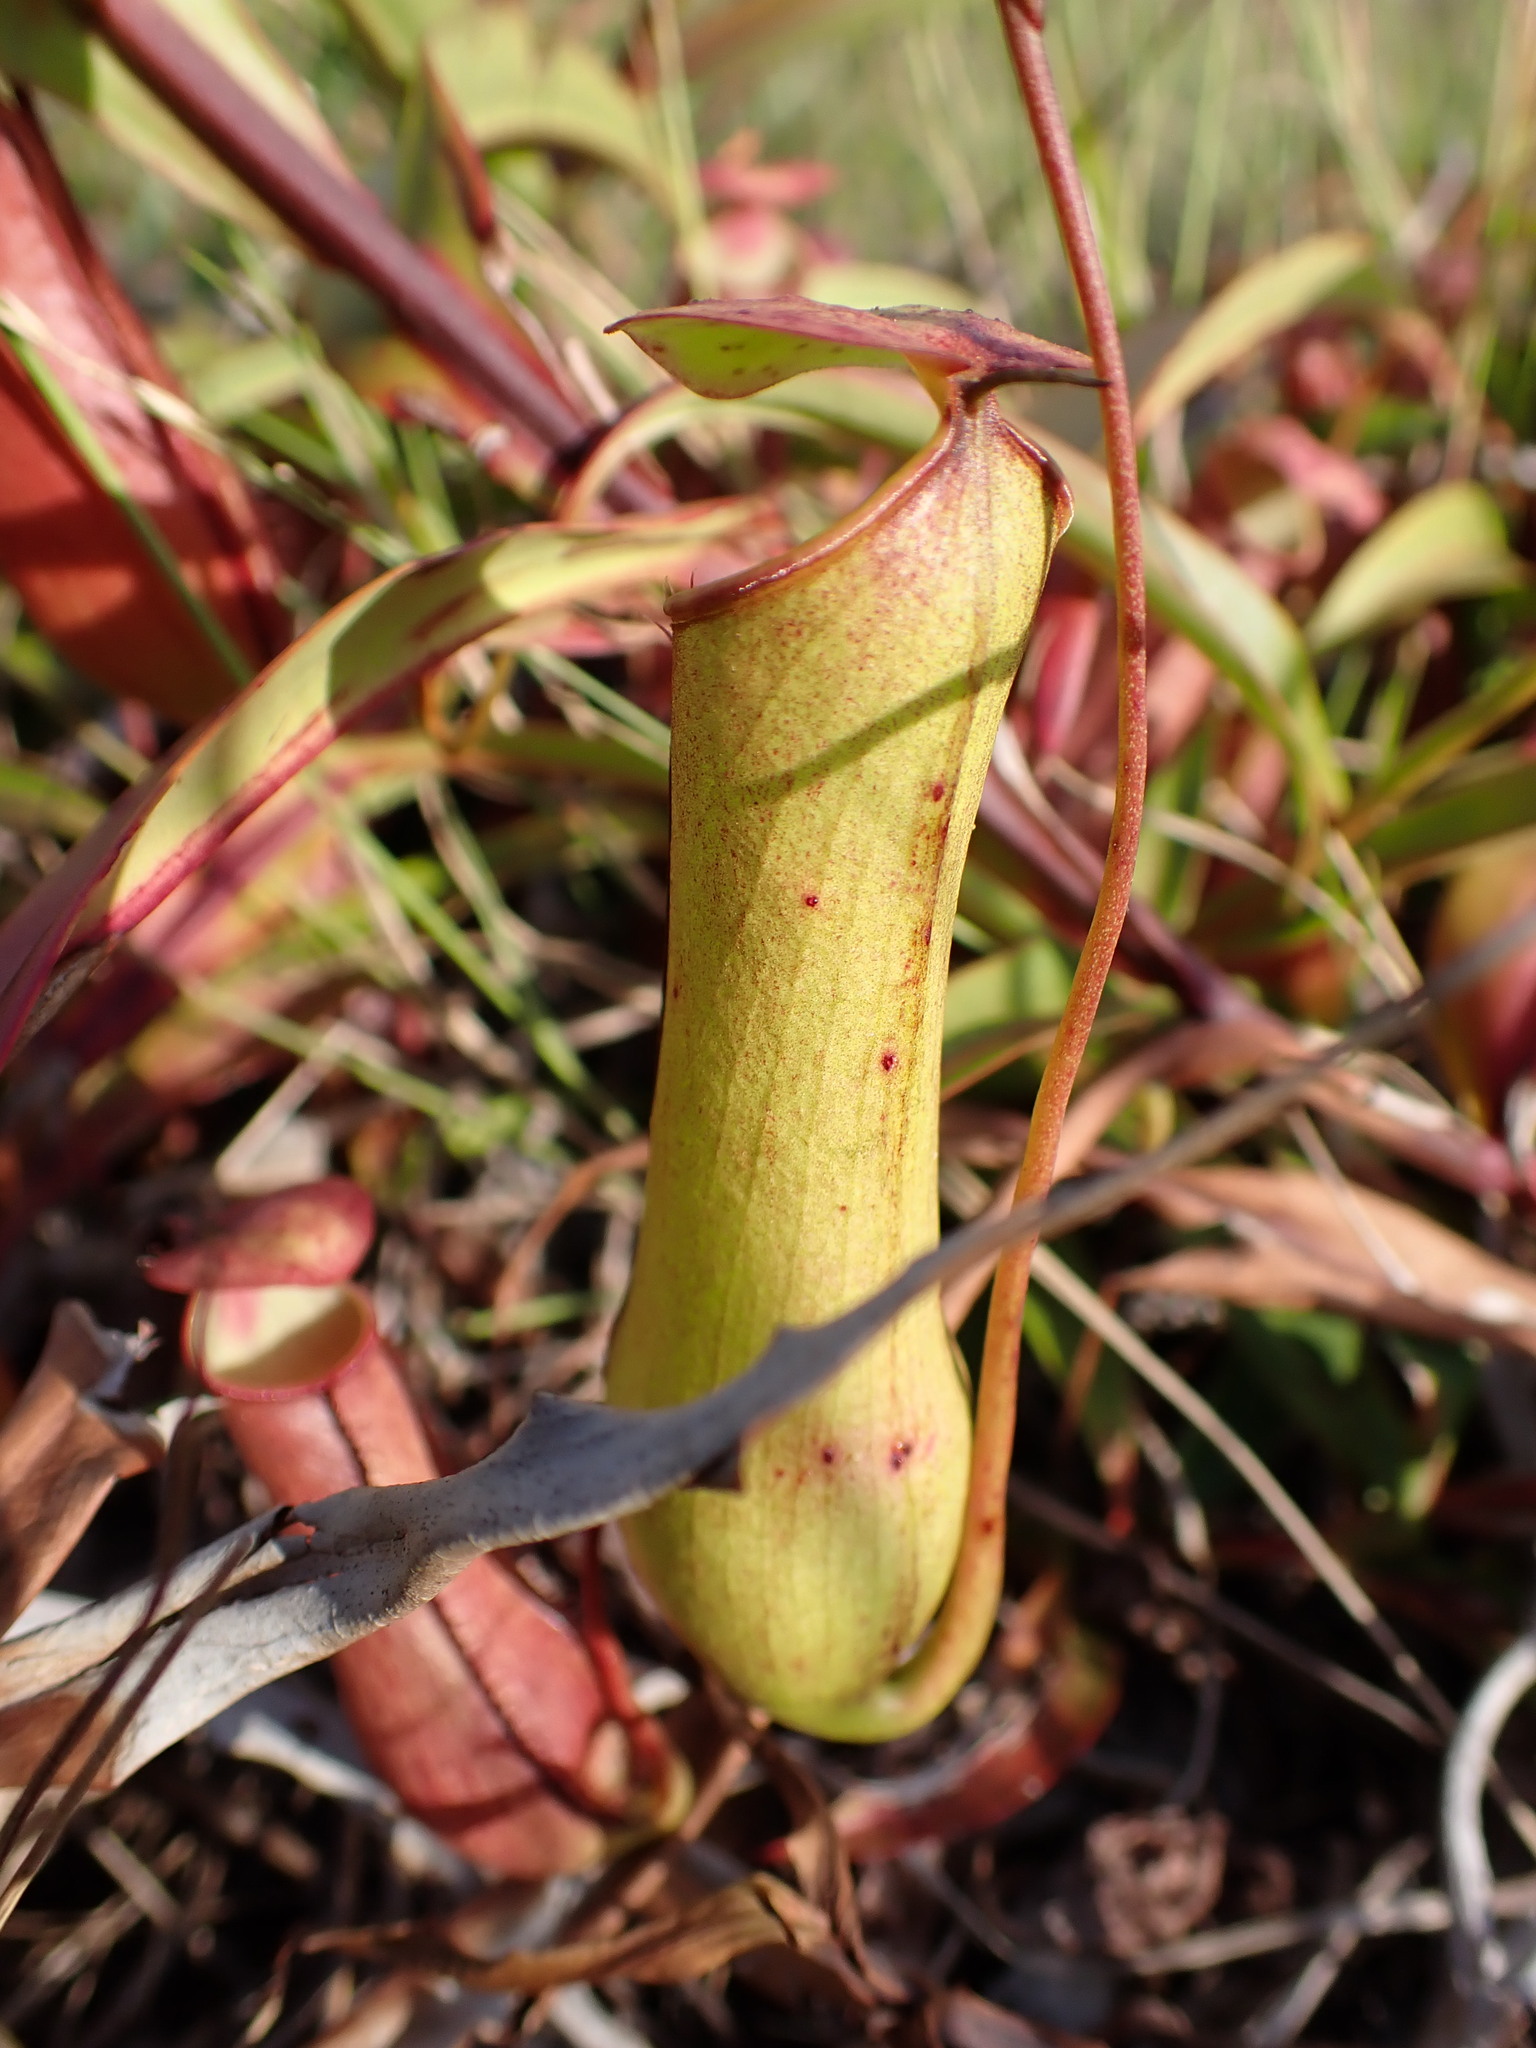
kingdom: Plantae
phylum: Tracheophyta
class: Magnoliopsida
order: Caryophyllales
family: Nepenthaceae
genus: Nepenthes
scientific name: Nepenthes gracilis
